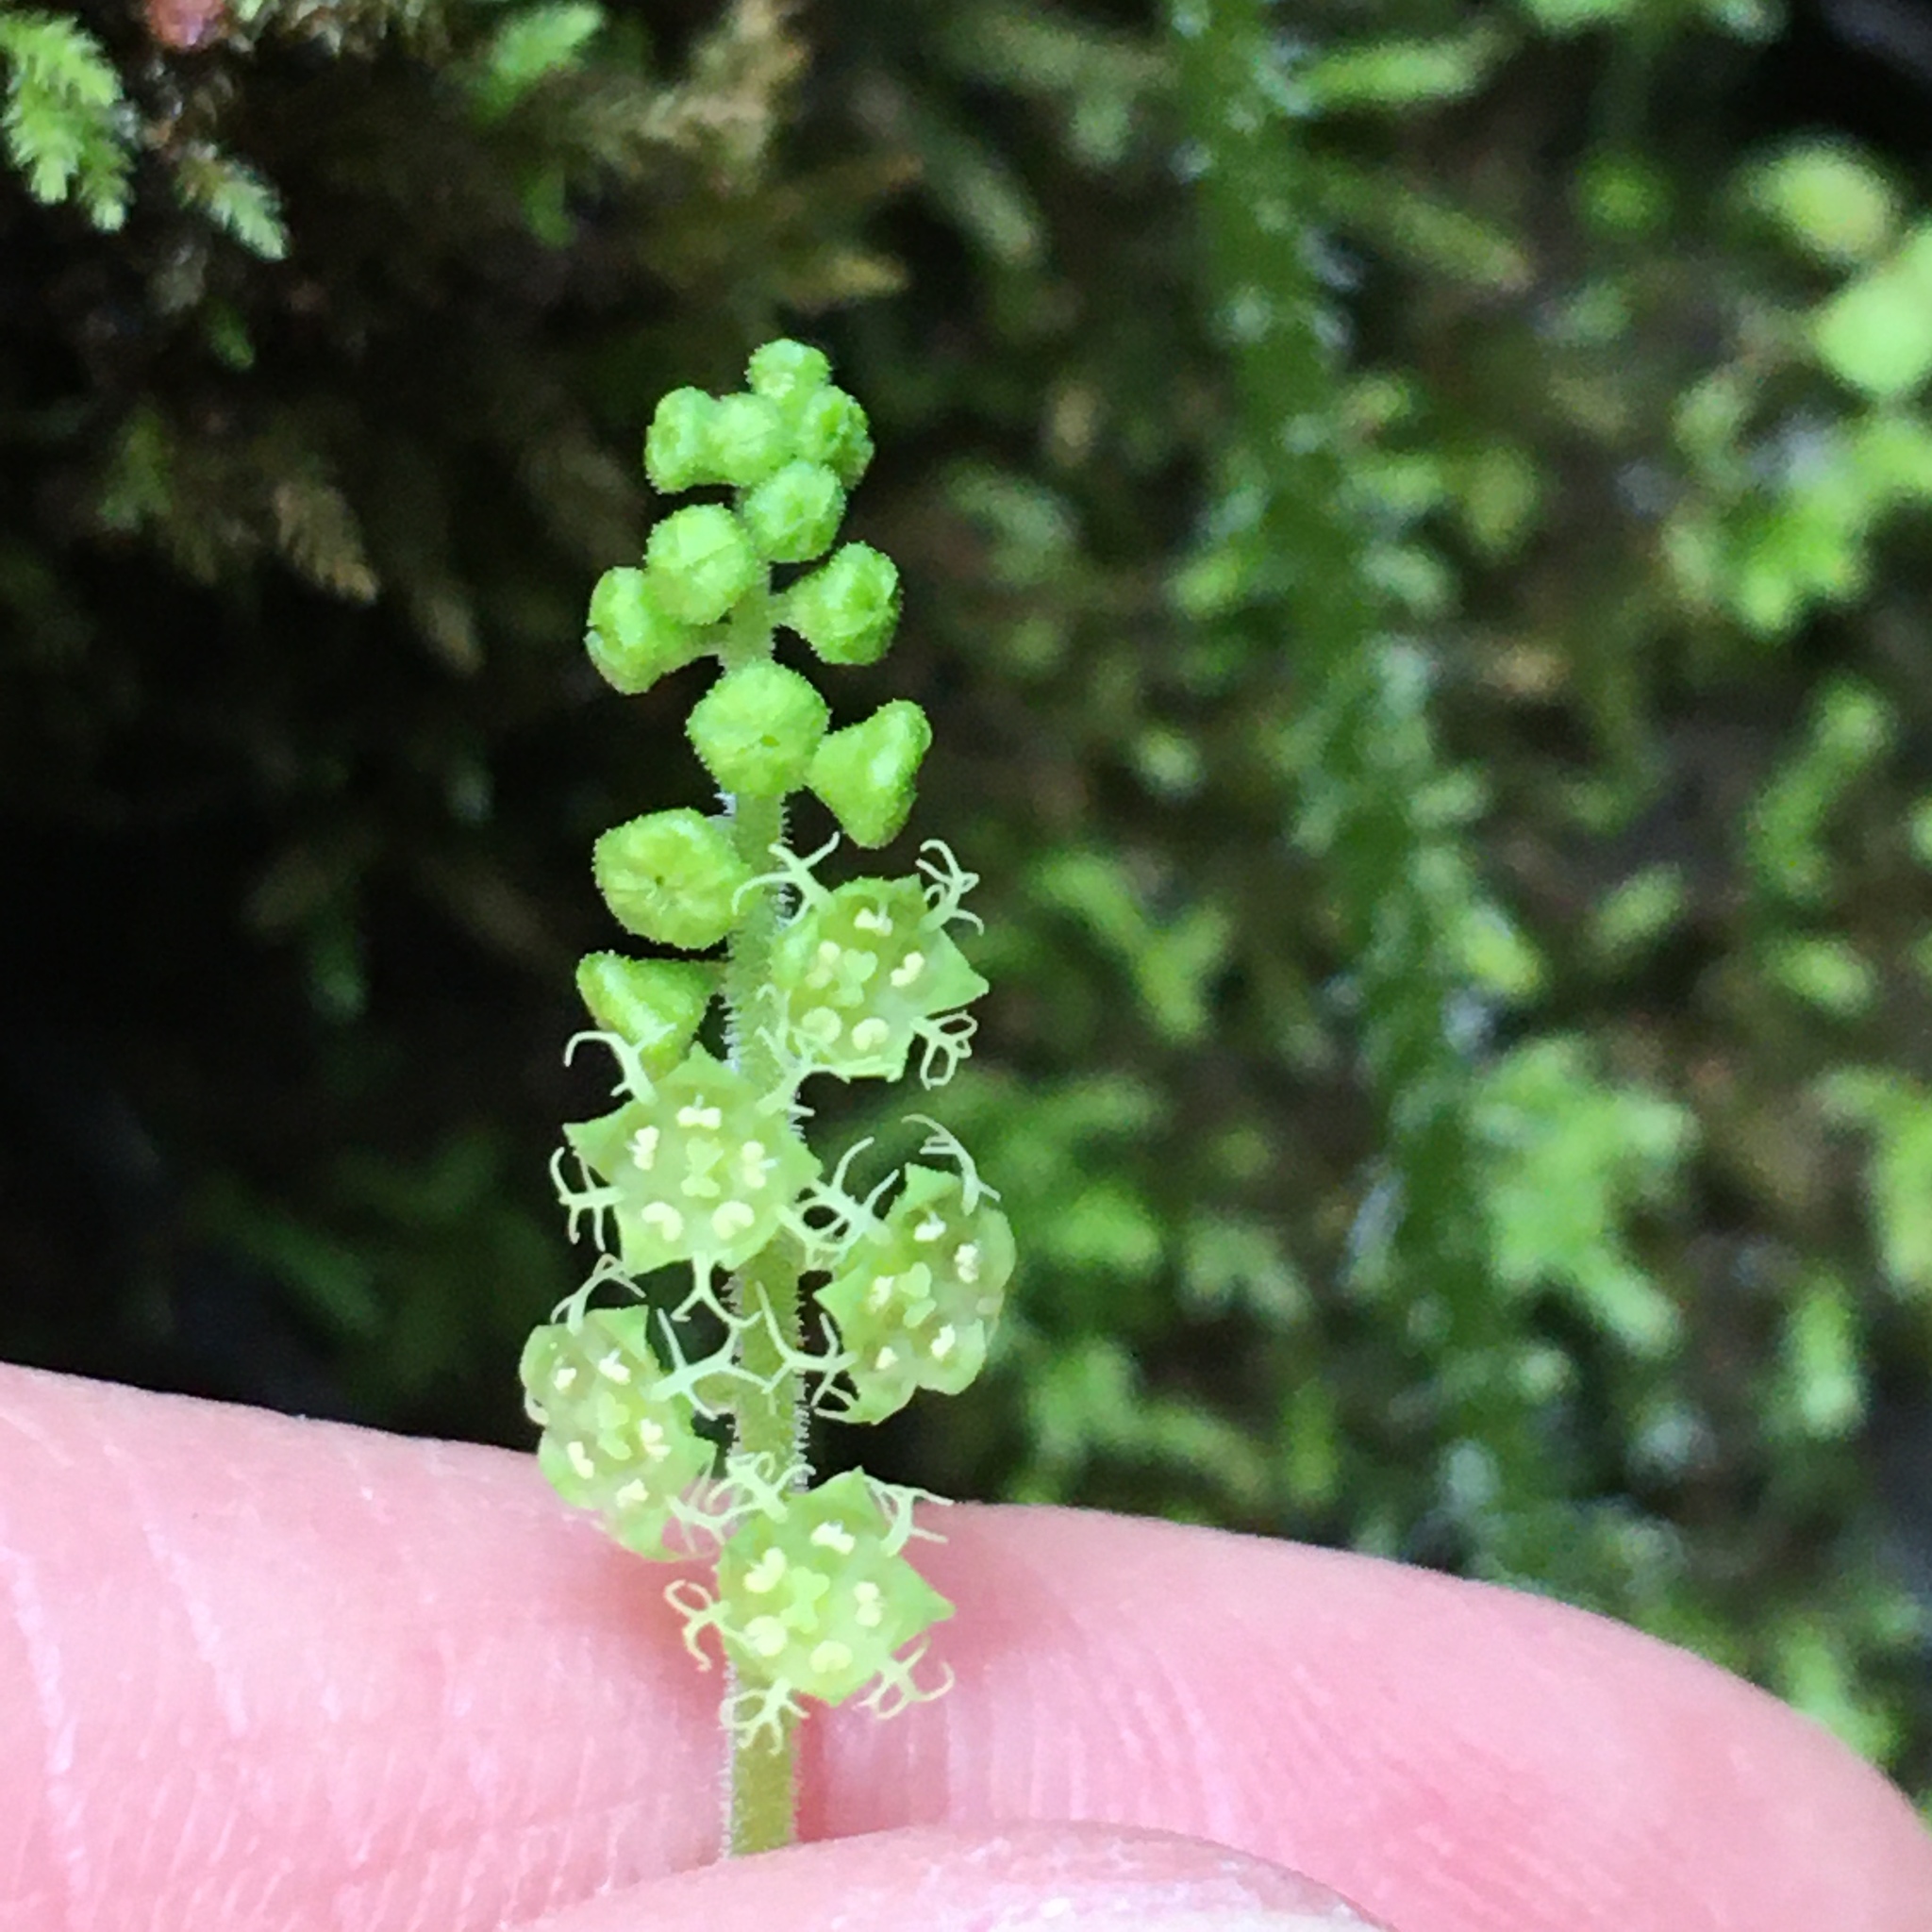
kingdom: Plantae
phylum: Tracheophyta
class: Magnoliopsida
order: Saxifragales
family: Saxifragaceae
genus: Brewerimitella
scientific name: Brewerimitella ovalis
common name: Coastal bishop's-cap
